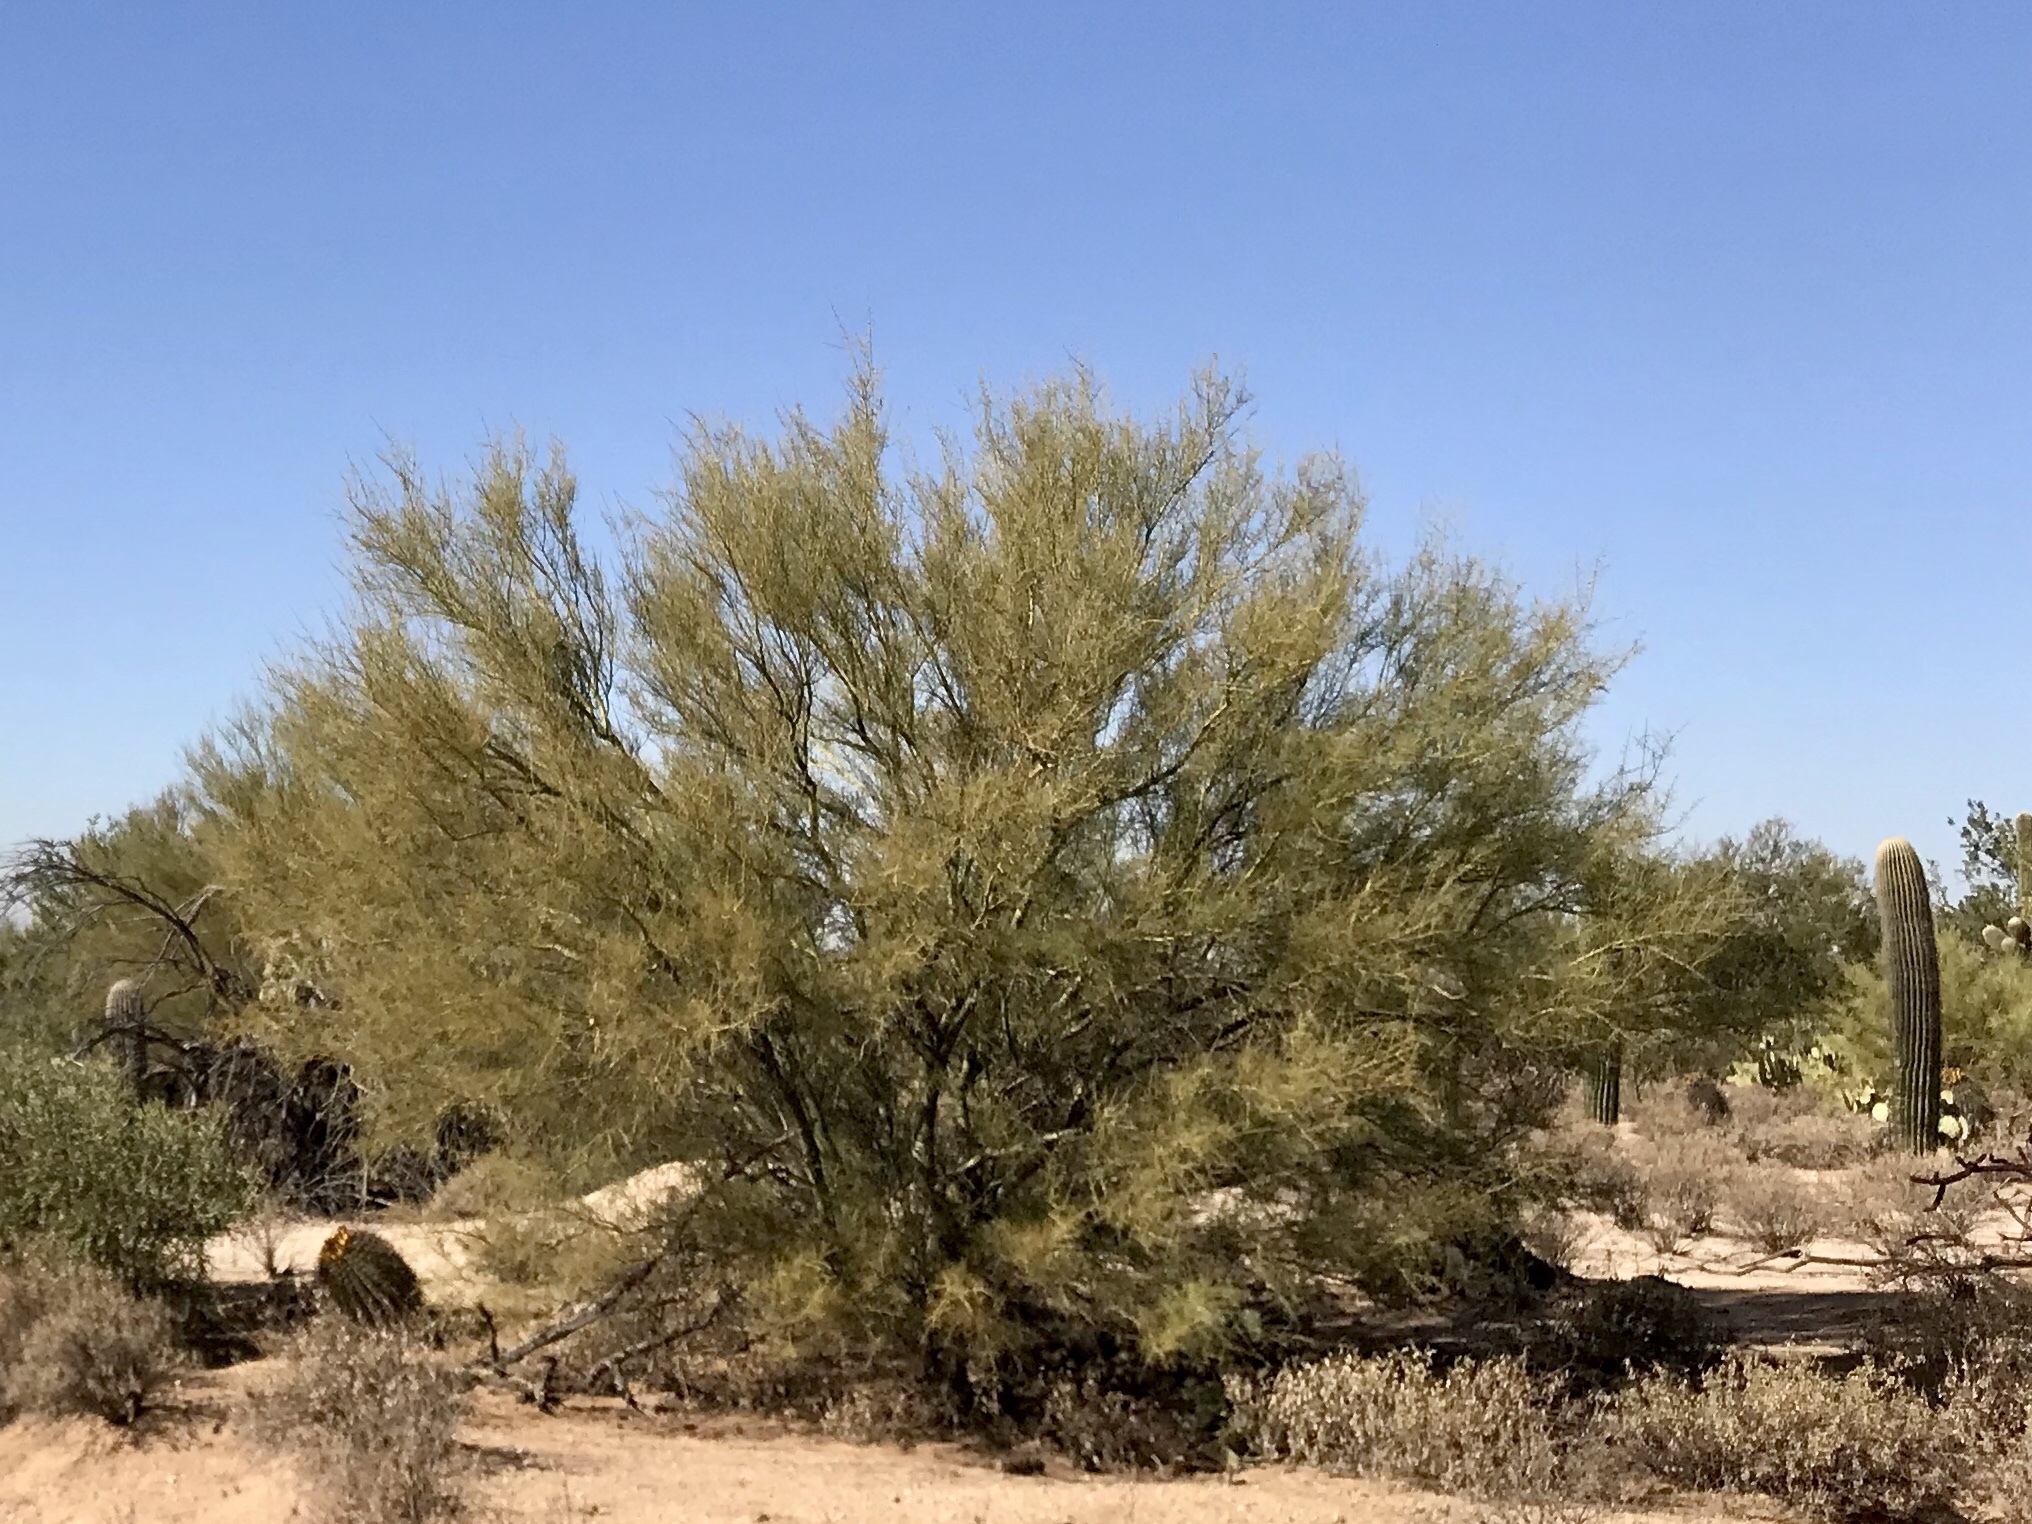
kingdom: Plantae
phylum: Tracheophyta
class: Magnoliopsida
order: Fabales
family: Fabaceae
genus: Parkinsonia
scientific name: Parkinsonia microphylla
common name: Yellow paloverde
